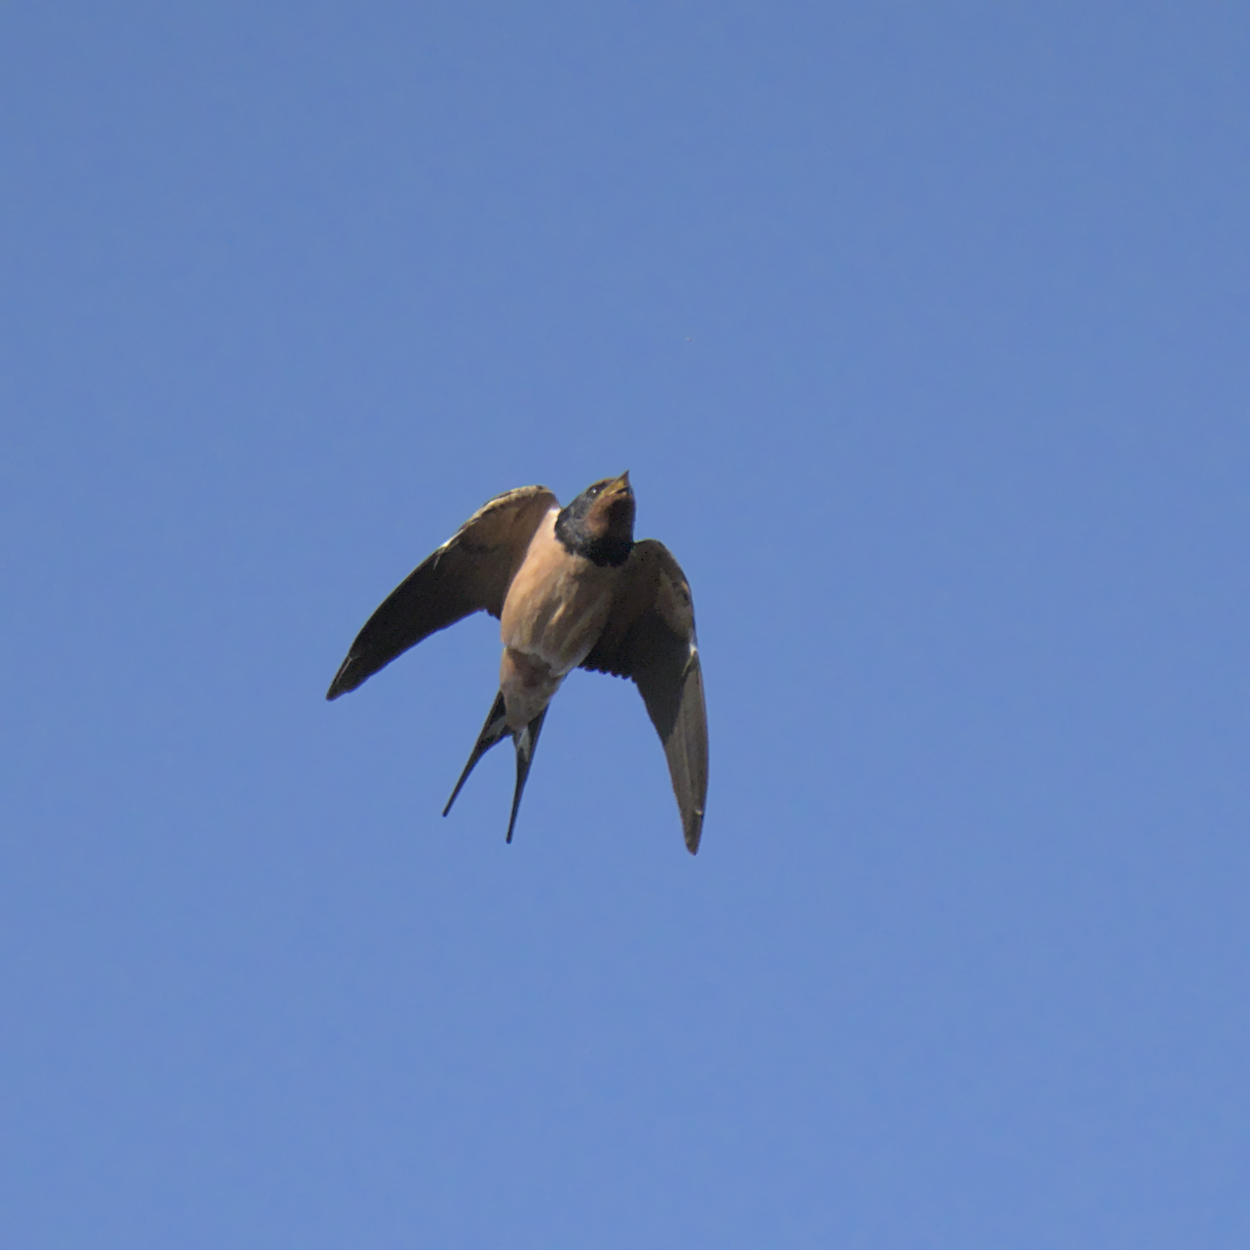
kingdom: Animalia
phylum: Chordata
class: Aves
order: Passeriformes
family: Hirundinidae
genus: Hirundo
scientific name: Hirundo rustica
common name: Barn swallow
